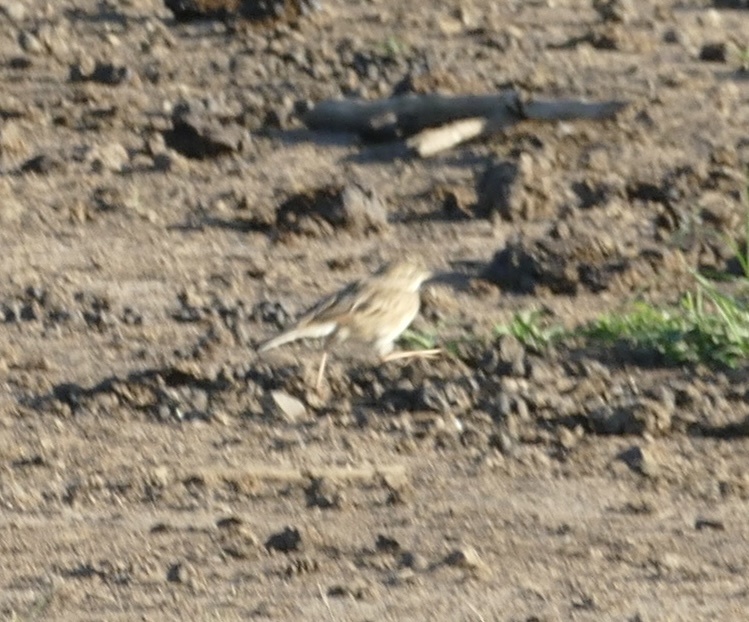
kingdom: Animalia
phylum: Chordata
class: Aves
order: Passeriformes
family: Motacillidae
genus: Anthus
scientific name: Anthus cinnamomeus
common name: African pipit
